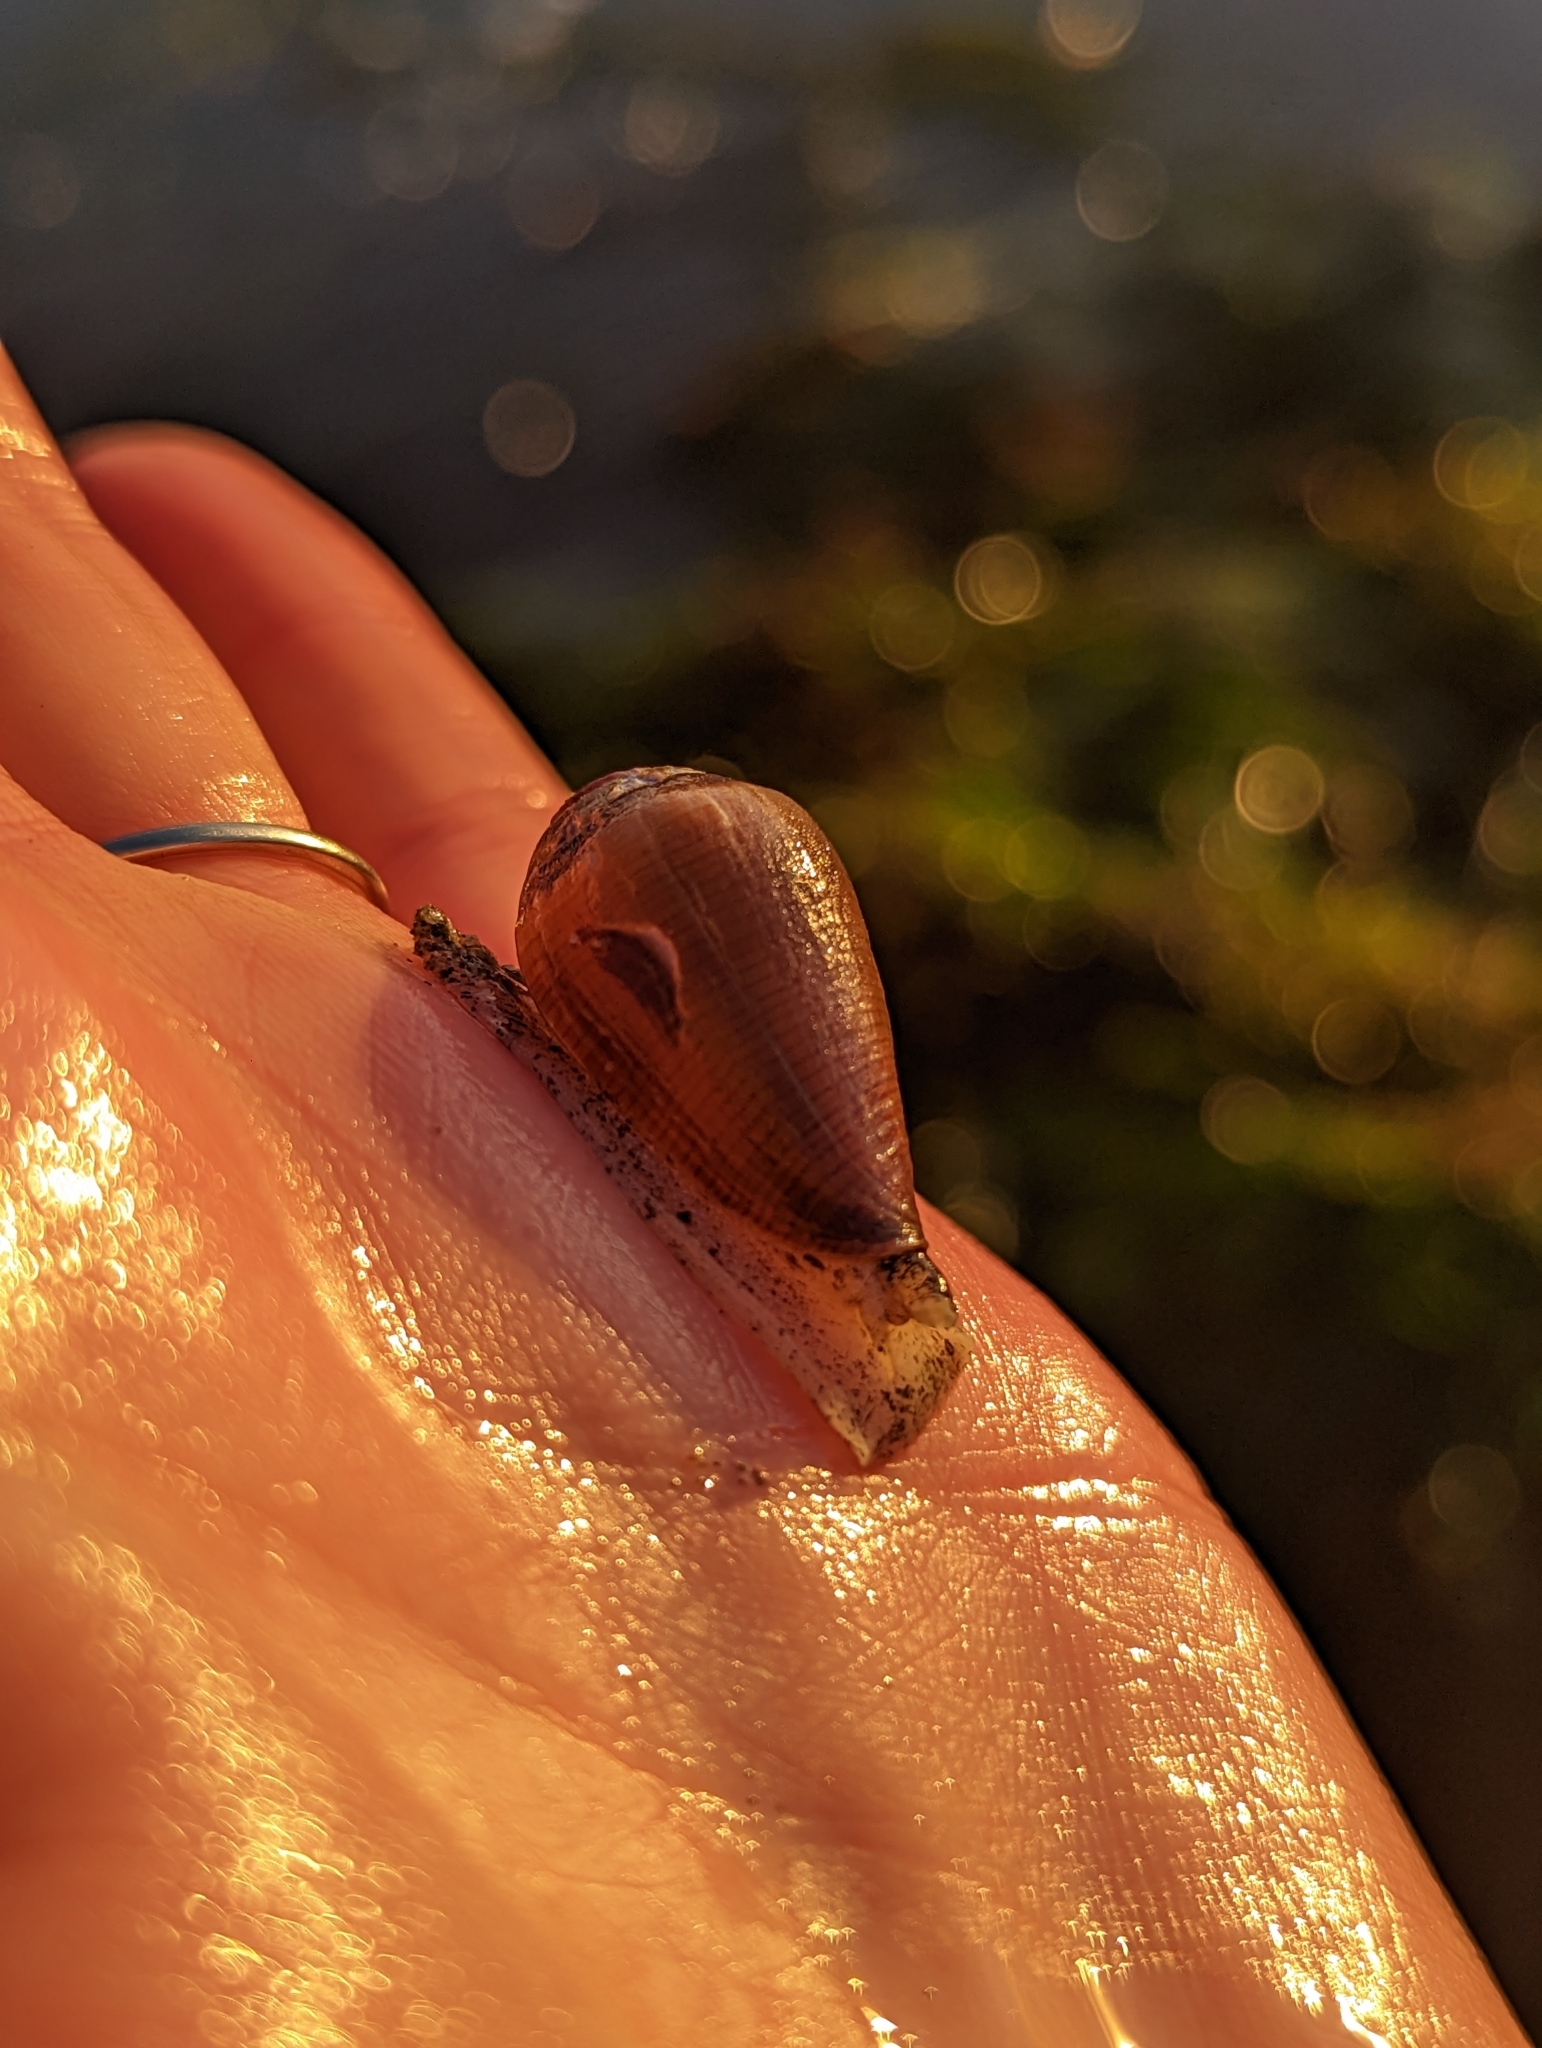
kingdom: Animalia
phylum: Mollusca
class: Gastropoda
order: Neogastropoda
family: Conidae
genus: Californiconus
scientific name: Californiconus californicus
